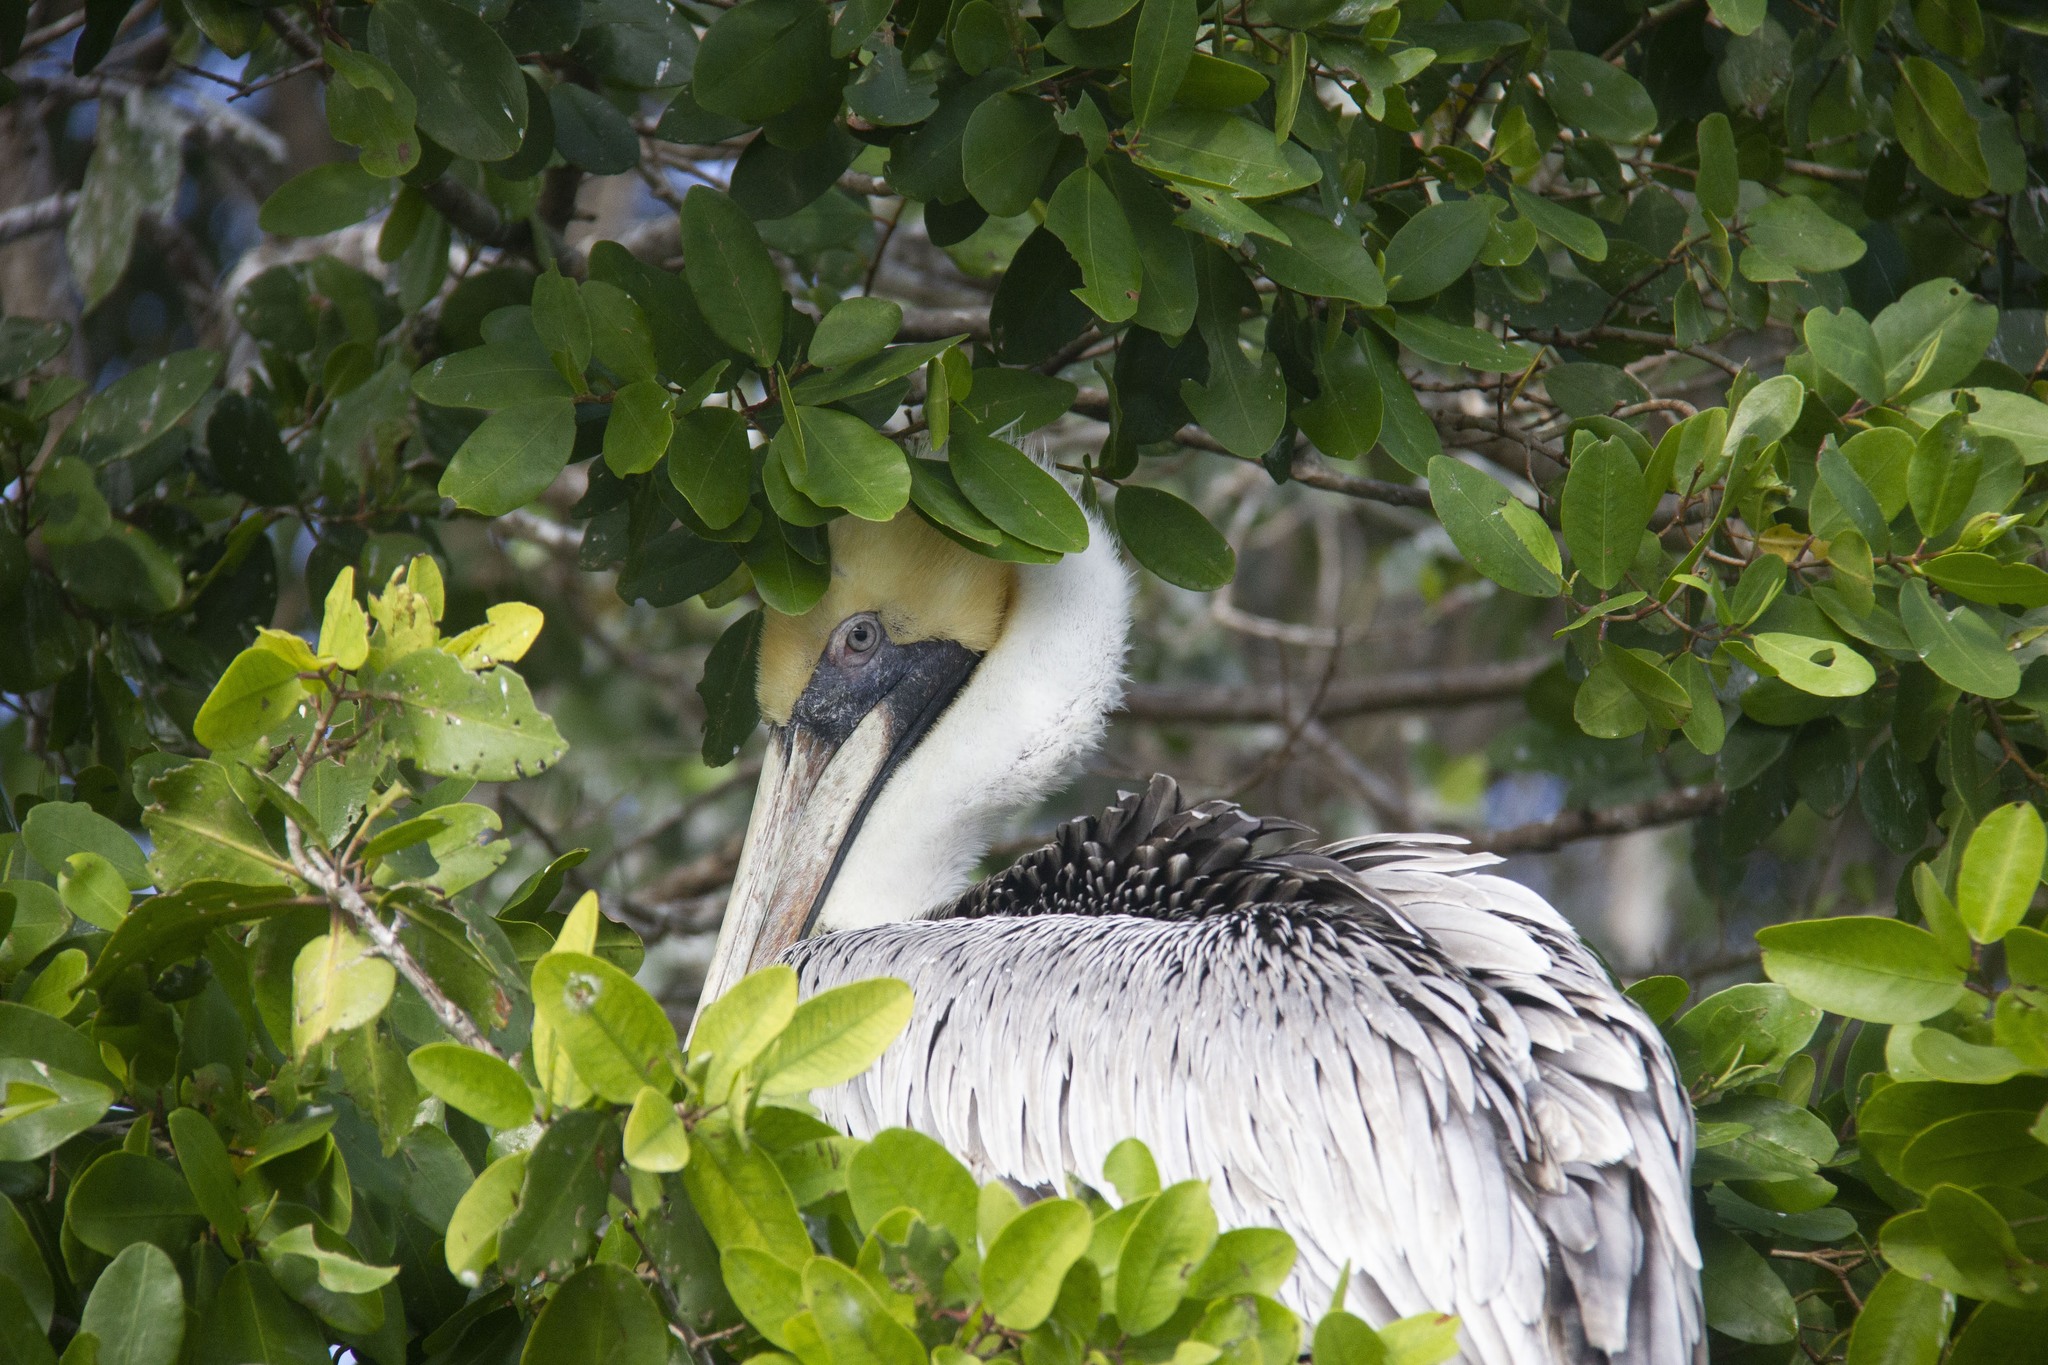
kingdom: Animalia
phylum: Chordata
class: Aves
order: Pelecaniformes
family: Pelecanidae
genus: Pelecanus
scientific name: Pelecanus occidentalis
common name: Brown pelican
